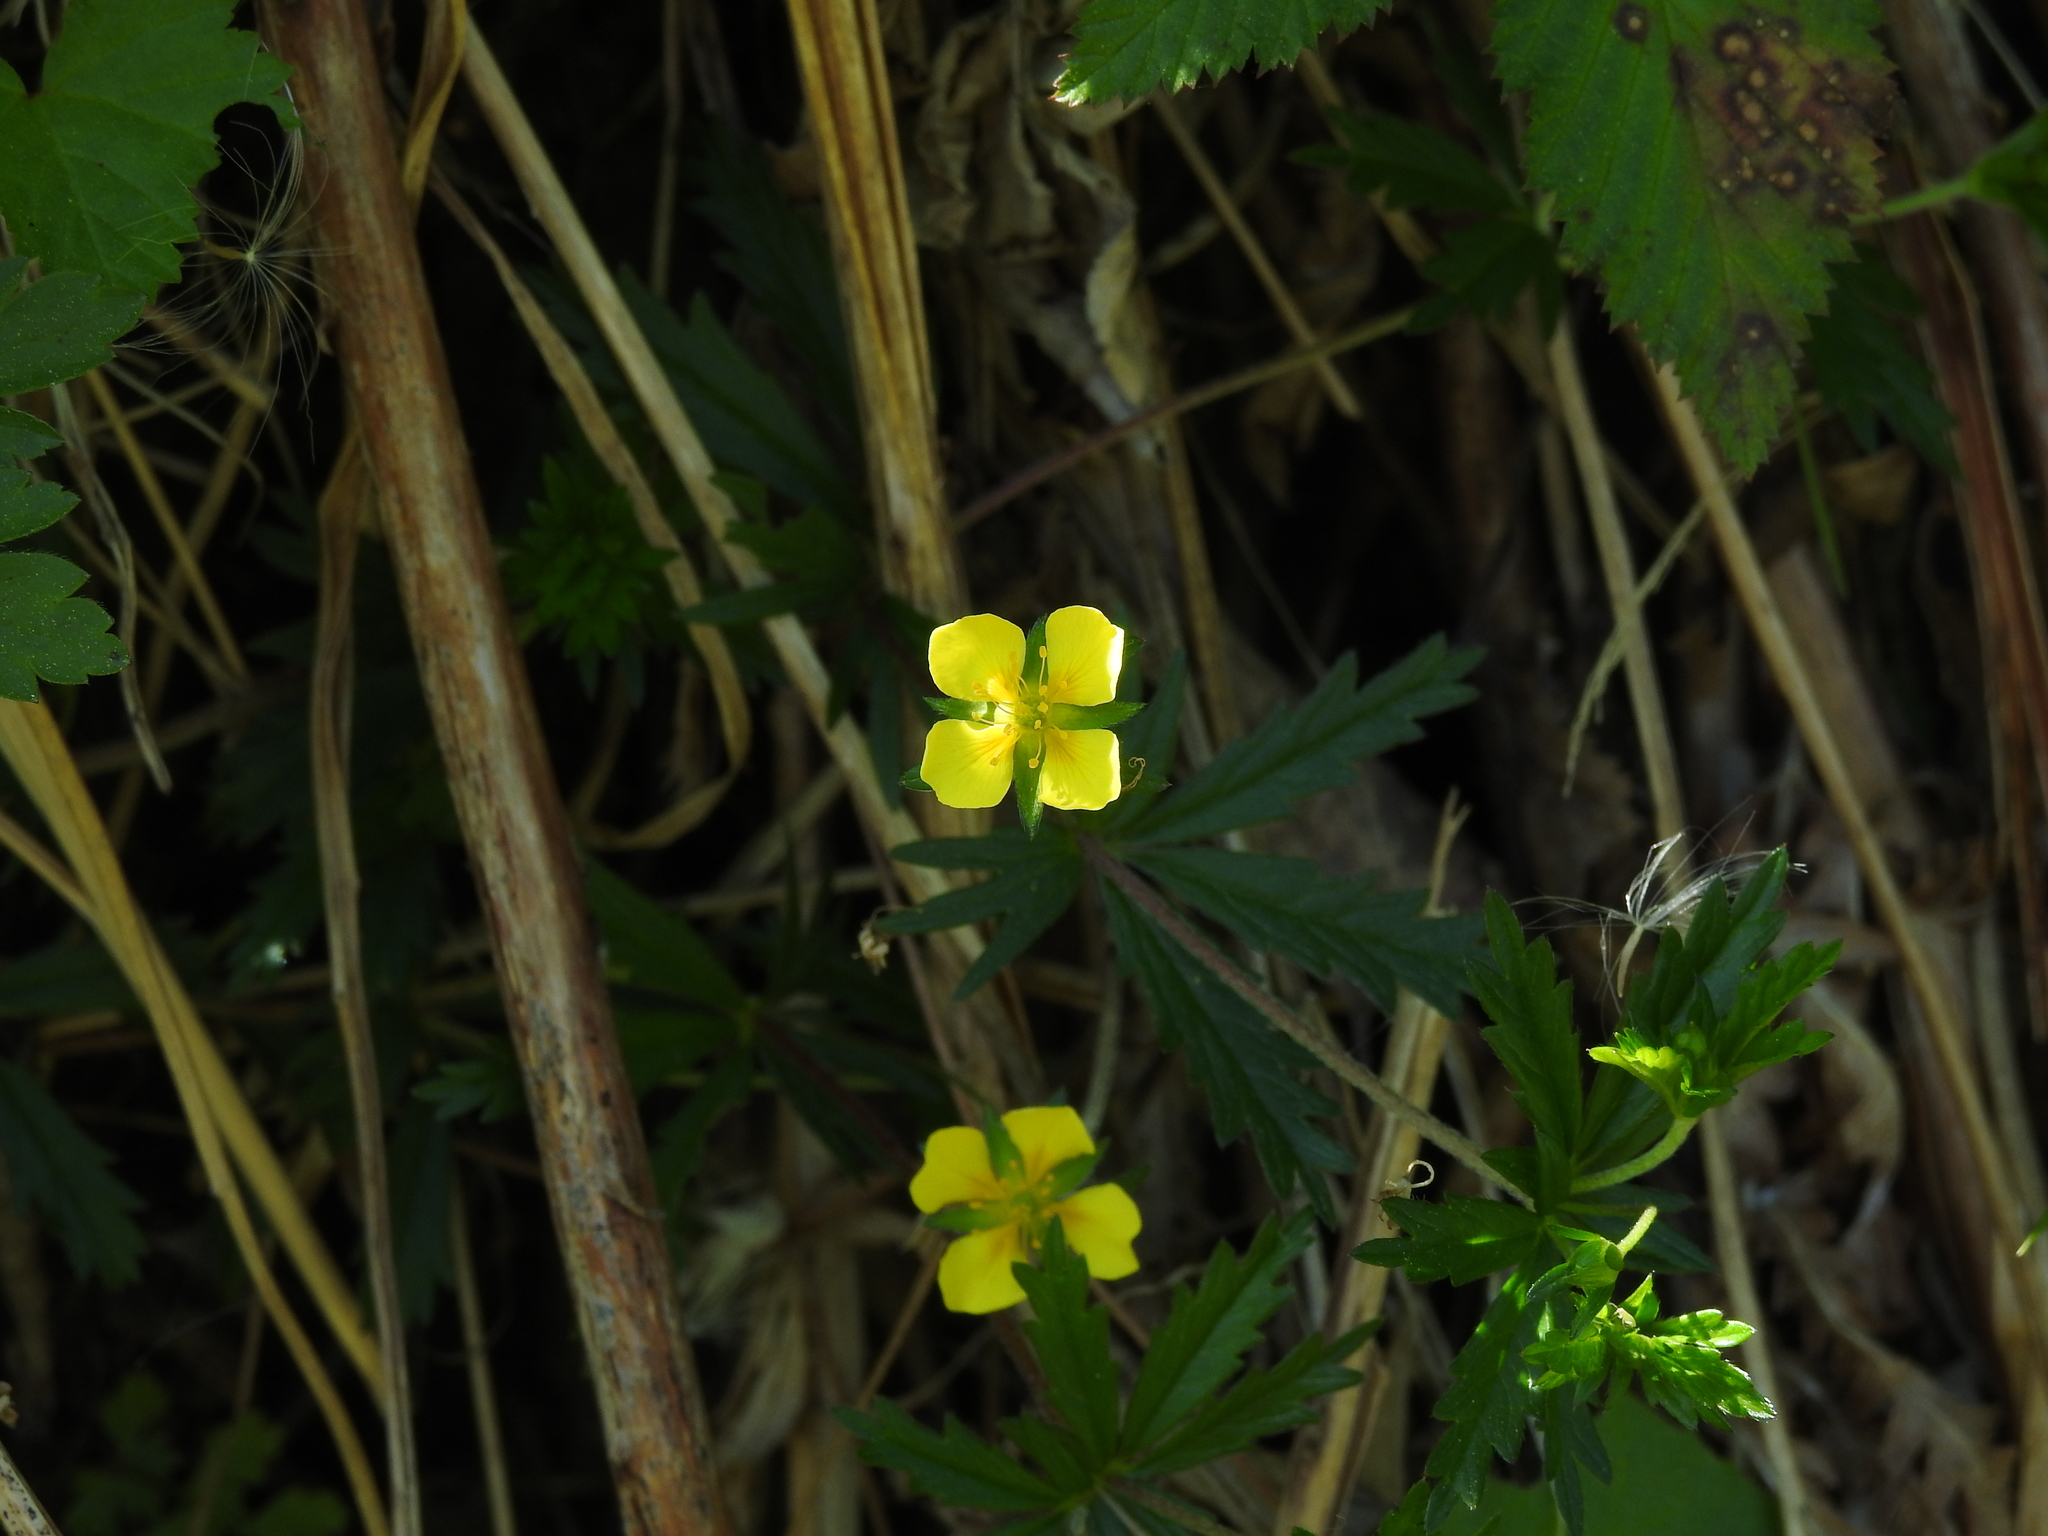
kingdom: Plantae
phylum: Tracheophyta
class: Magnoliopsida
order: Rosales
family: Rosaceae
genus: Potentilla
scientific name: Potentilla erecta
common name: Tormentil
